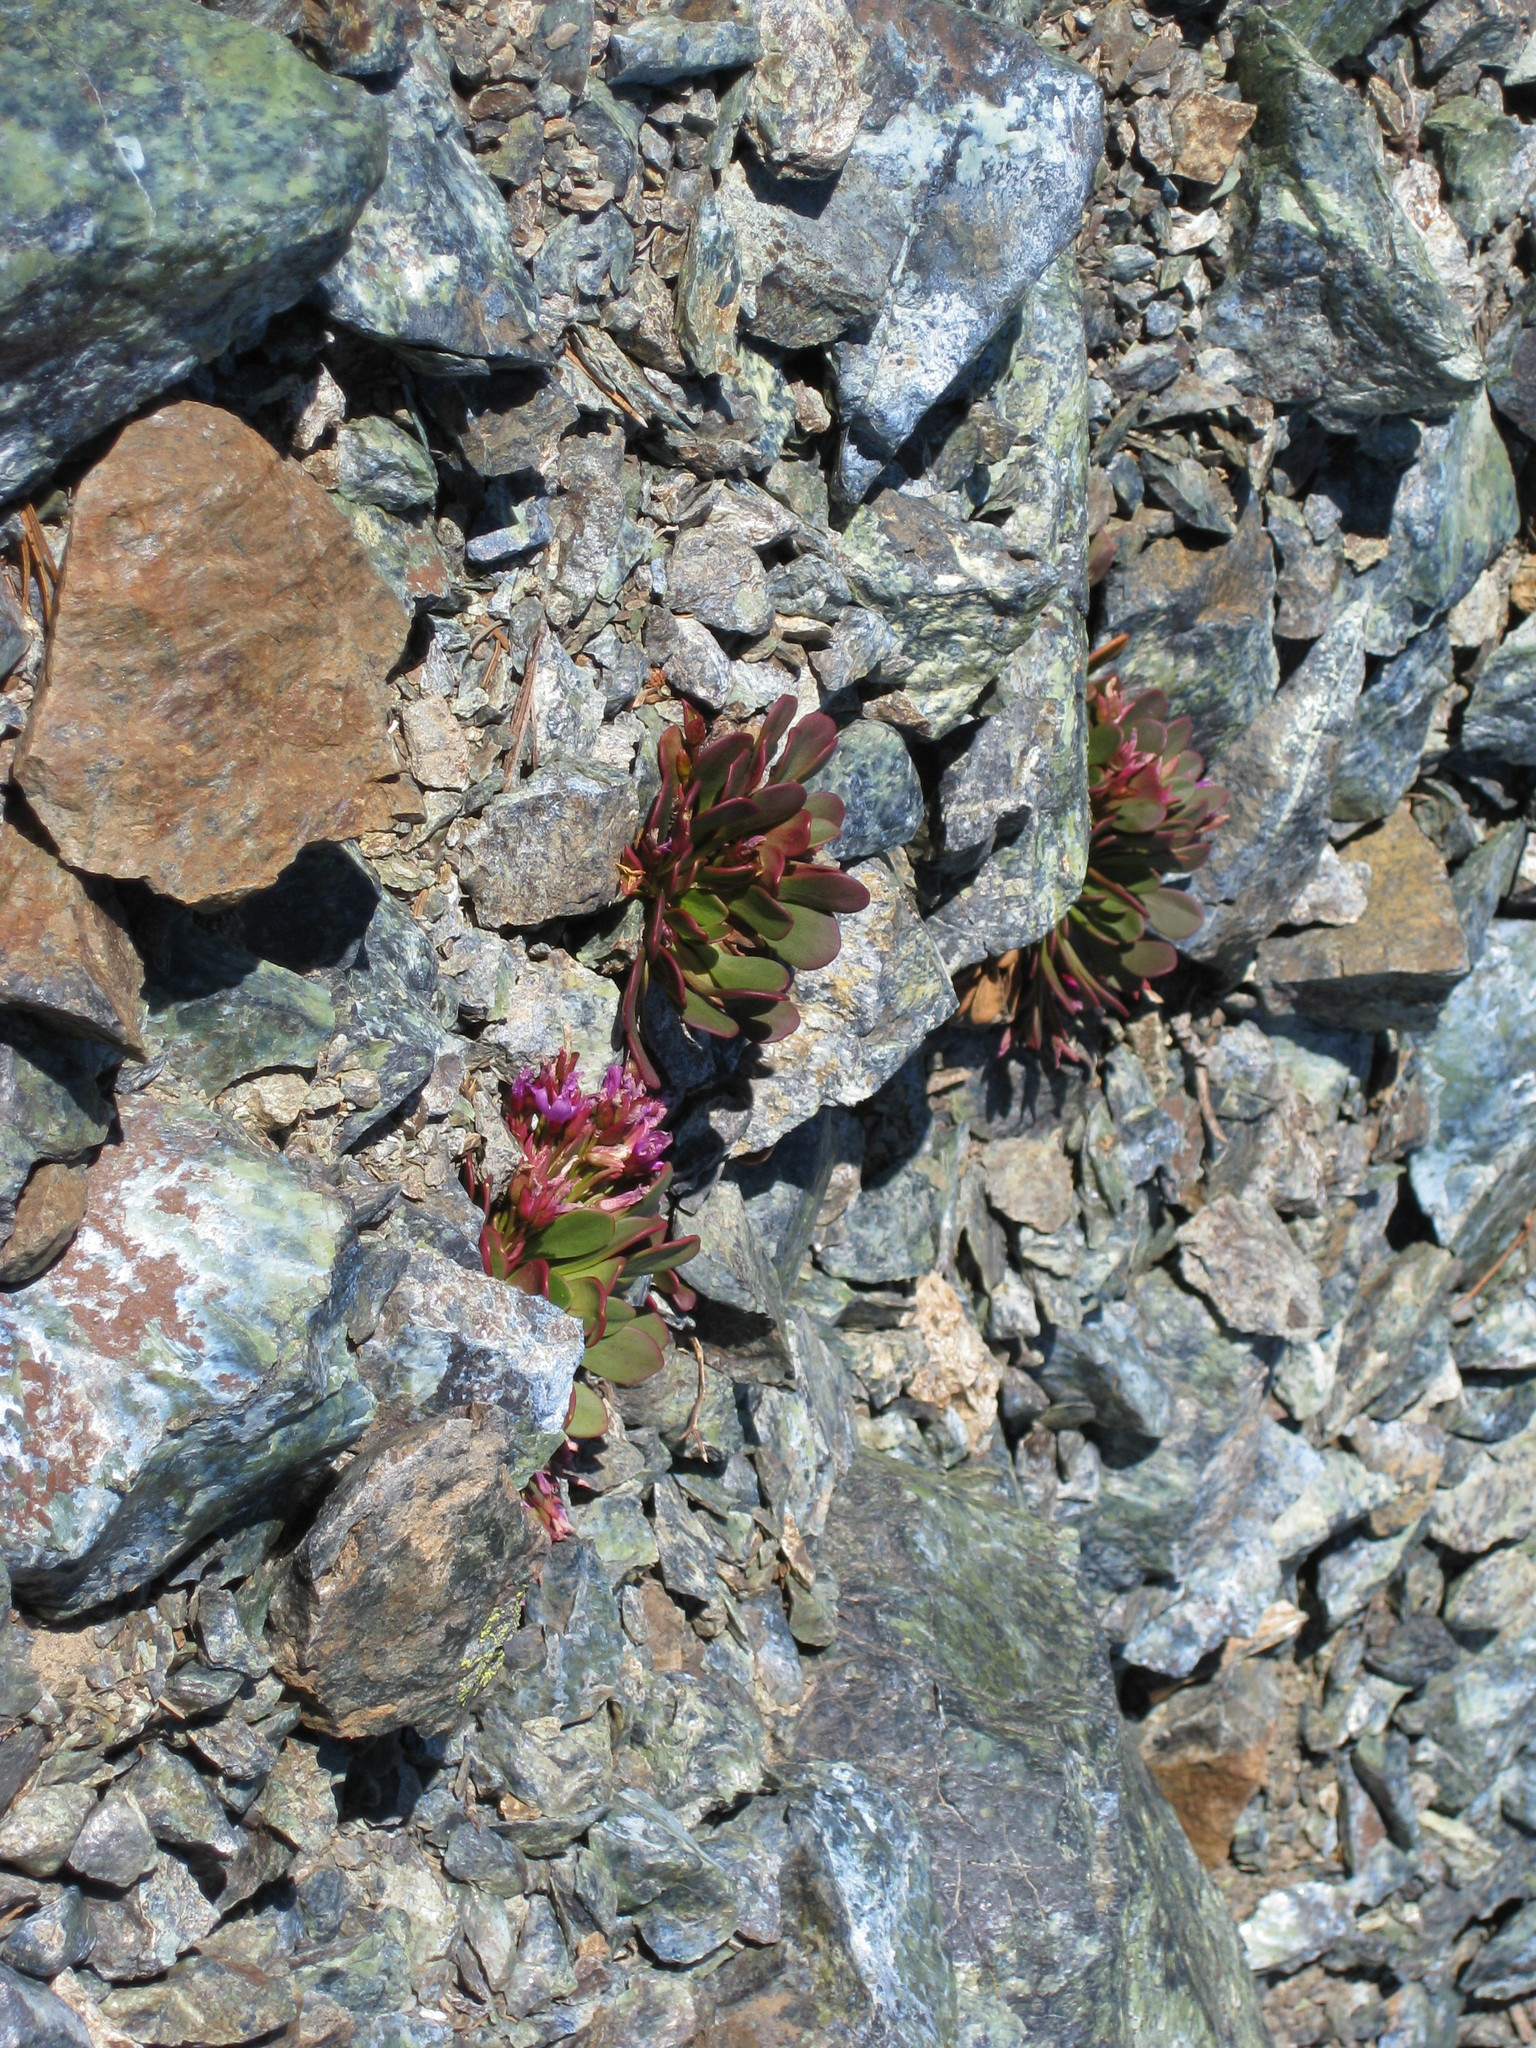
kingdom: Plantae
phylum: Tracheophyta
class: Magnoliopsida
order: Caryophyllales
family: Montiaceae
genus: Claytonia
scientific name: Claytonia megarhiza
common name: Alpine spring beauty
